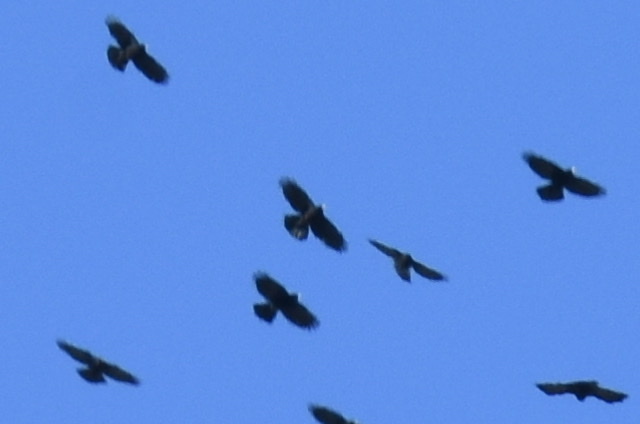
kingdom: Animalia
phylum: Chordata
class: Aves
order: Passeriformes
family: Corvidae
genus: Pyrrhocorax
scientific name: Pyrrhocorax graculus
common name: Alpine chough
